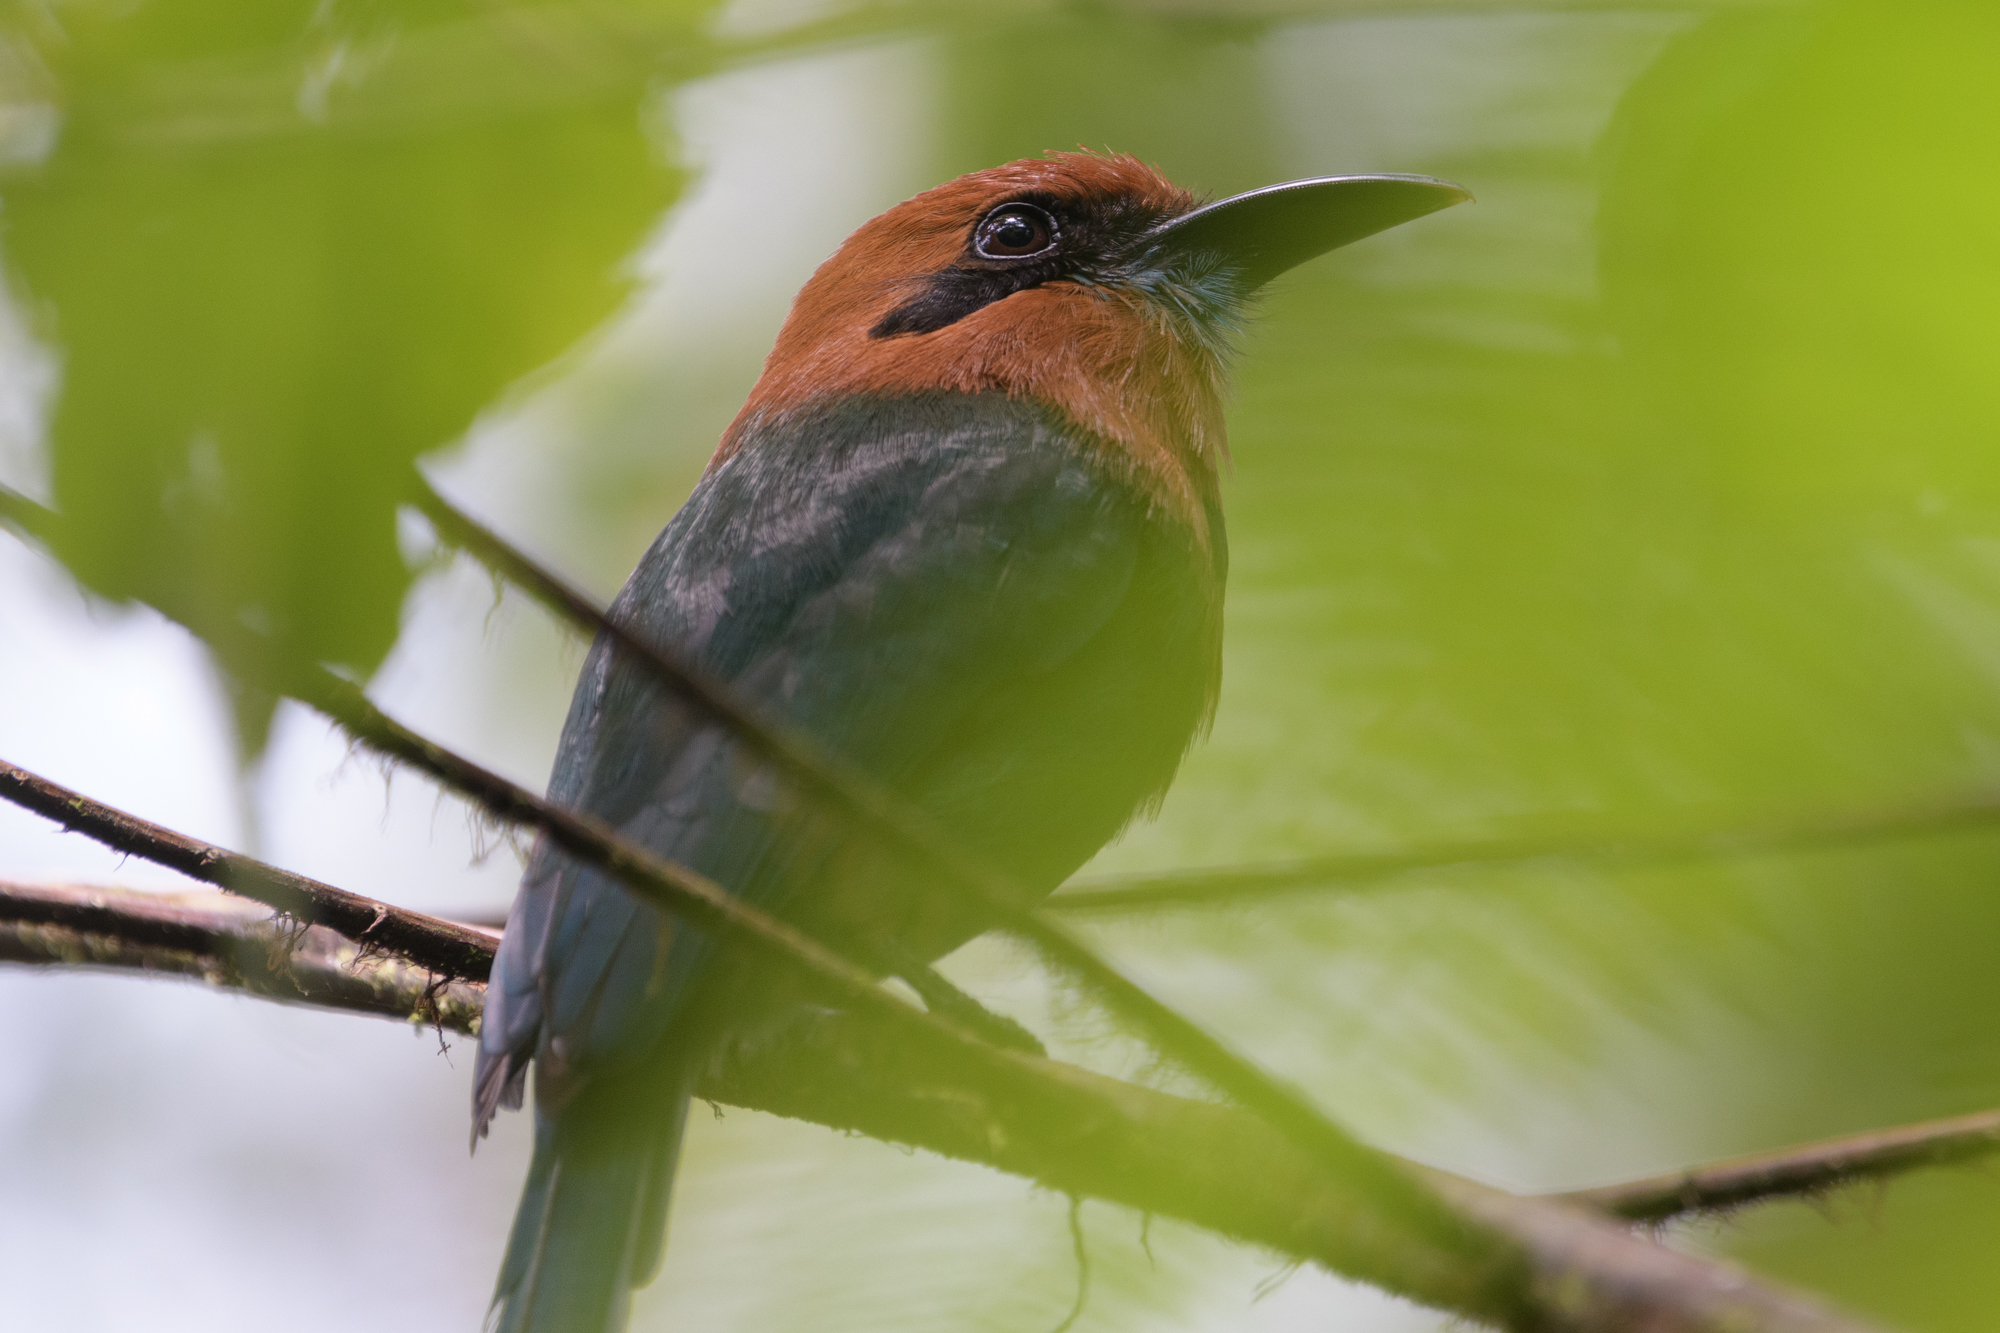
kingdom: Animalia
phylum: Chordata
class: Aves
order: Coraciiformes
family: Momotidae
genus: Electron
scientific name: Electron platyrhynchum
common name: Broad-billed motmot
